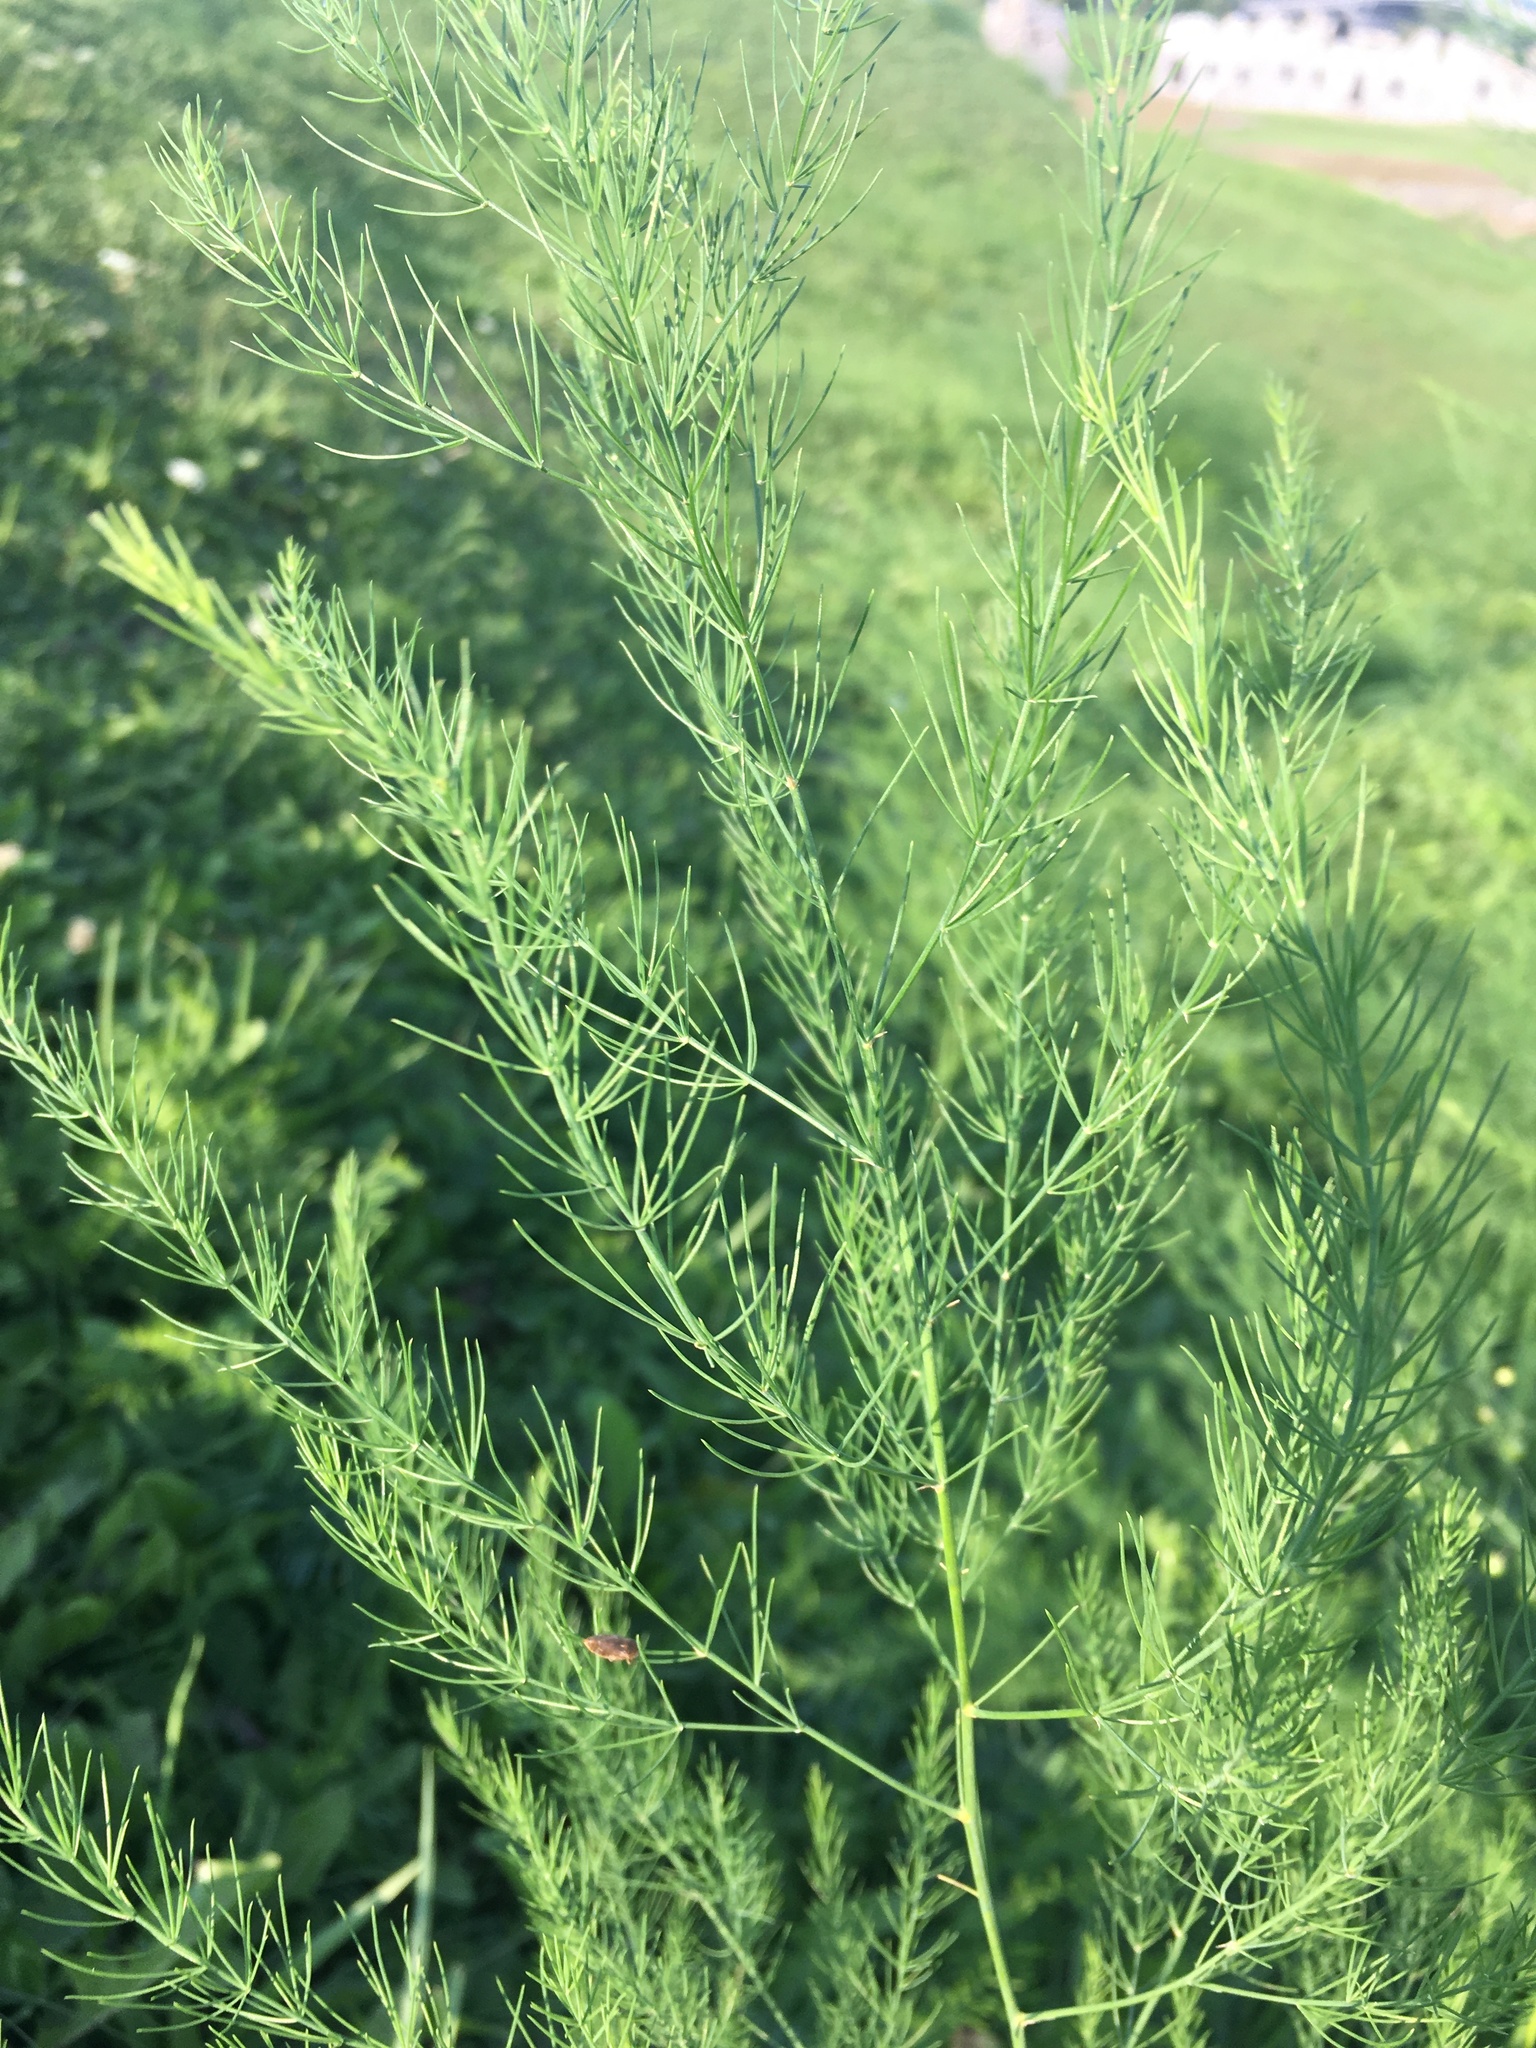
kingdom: Plantae
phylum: Tracheophyta
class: Liliopsida
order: Asparagales
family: Asparagaceae
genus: Asparagus
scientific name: Asparagus officinalis
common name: Garden asparagus
